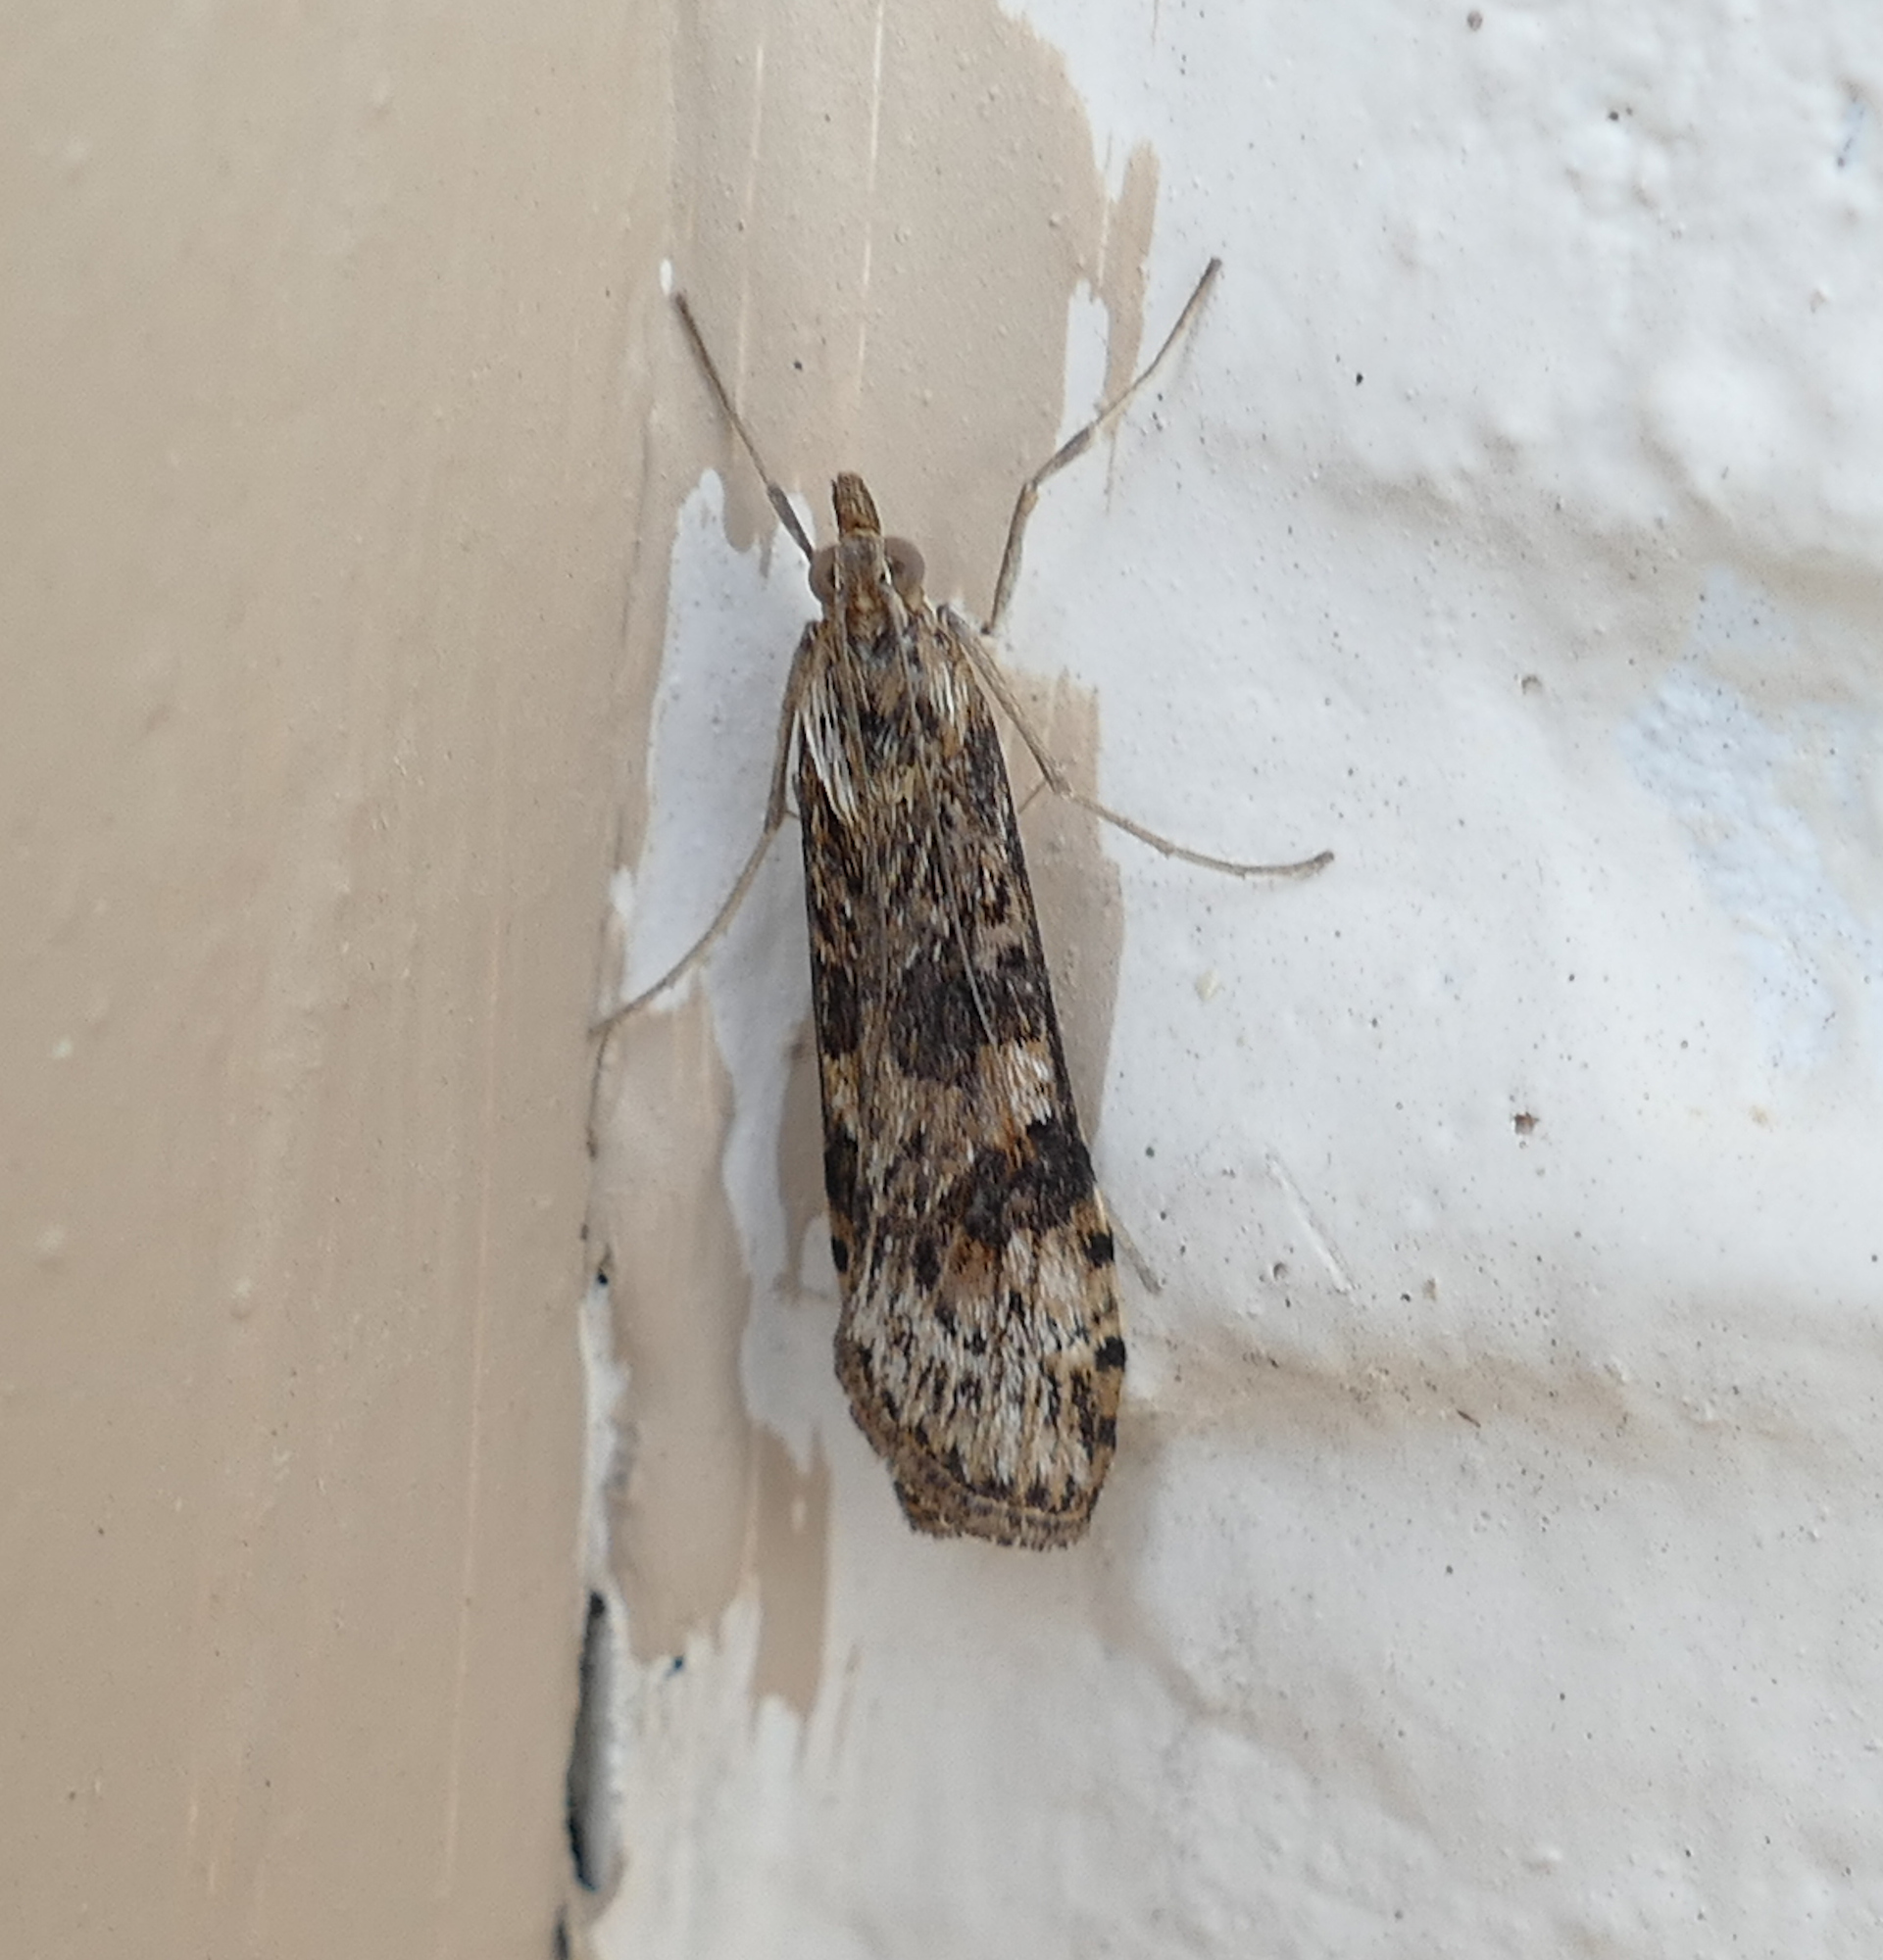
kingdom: Animalia
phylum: Arthropoda
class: Insecta
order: Lepidoptera
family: Crambidae
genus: Nomophila
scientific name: Nomophila nearctica
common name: American rush veneer
